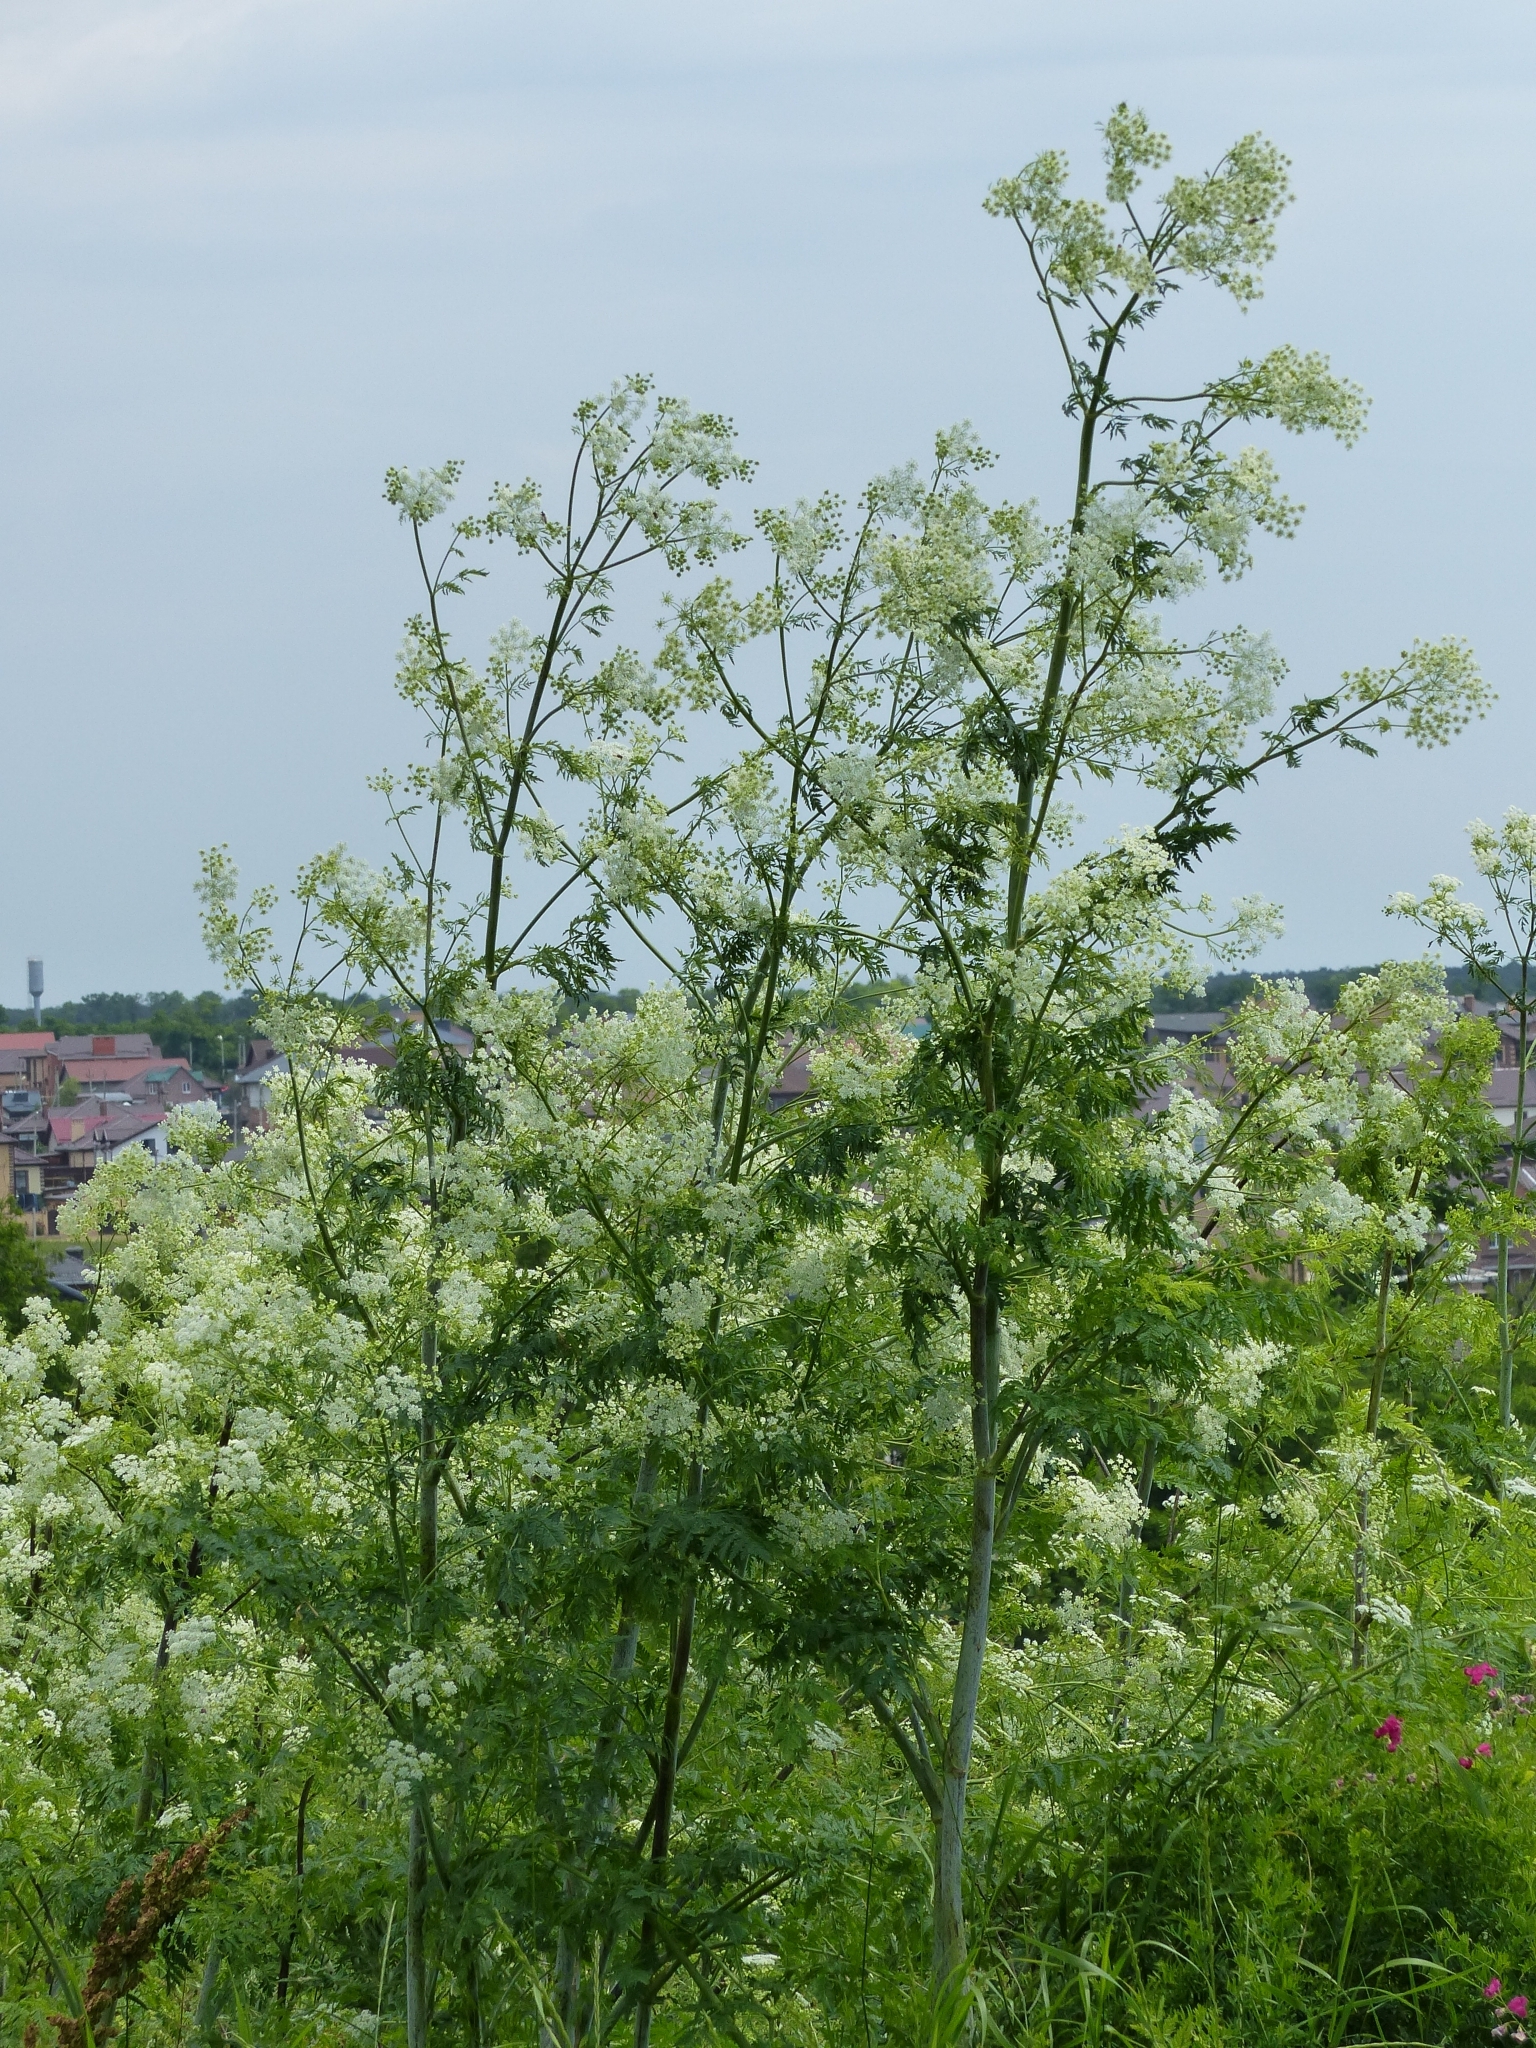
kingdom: Plantae
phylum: Tracheophyta
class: Magnoliopsida
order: Apiales
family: Apiaceae
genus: Conium
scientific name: Conium maculatum
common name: Hemlock
